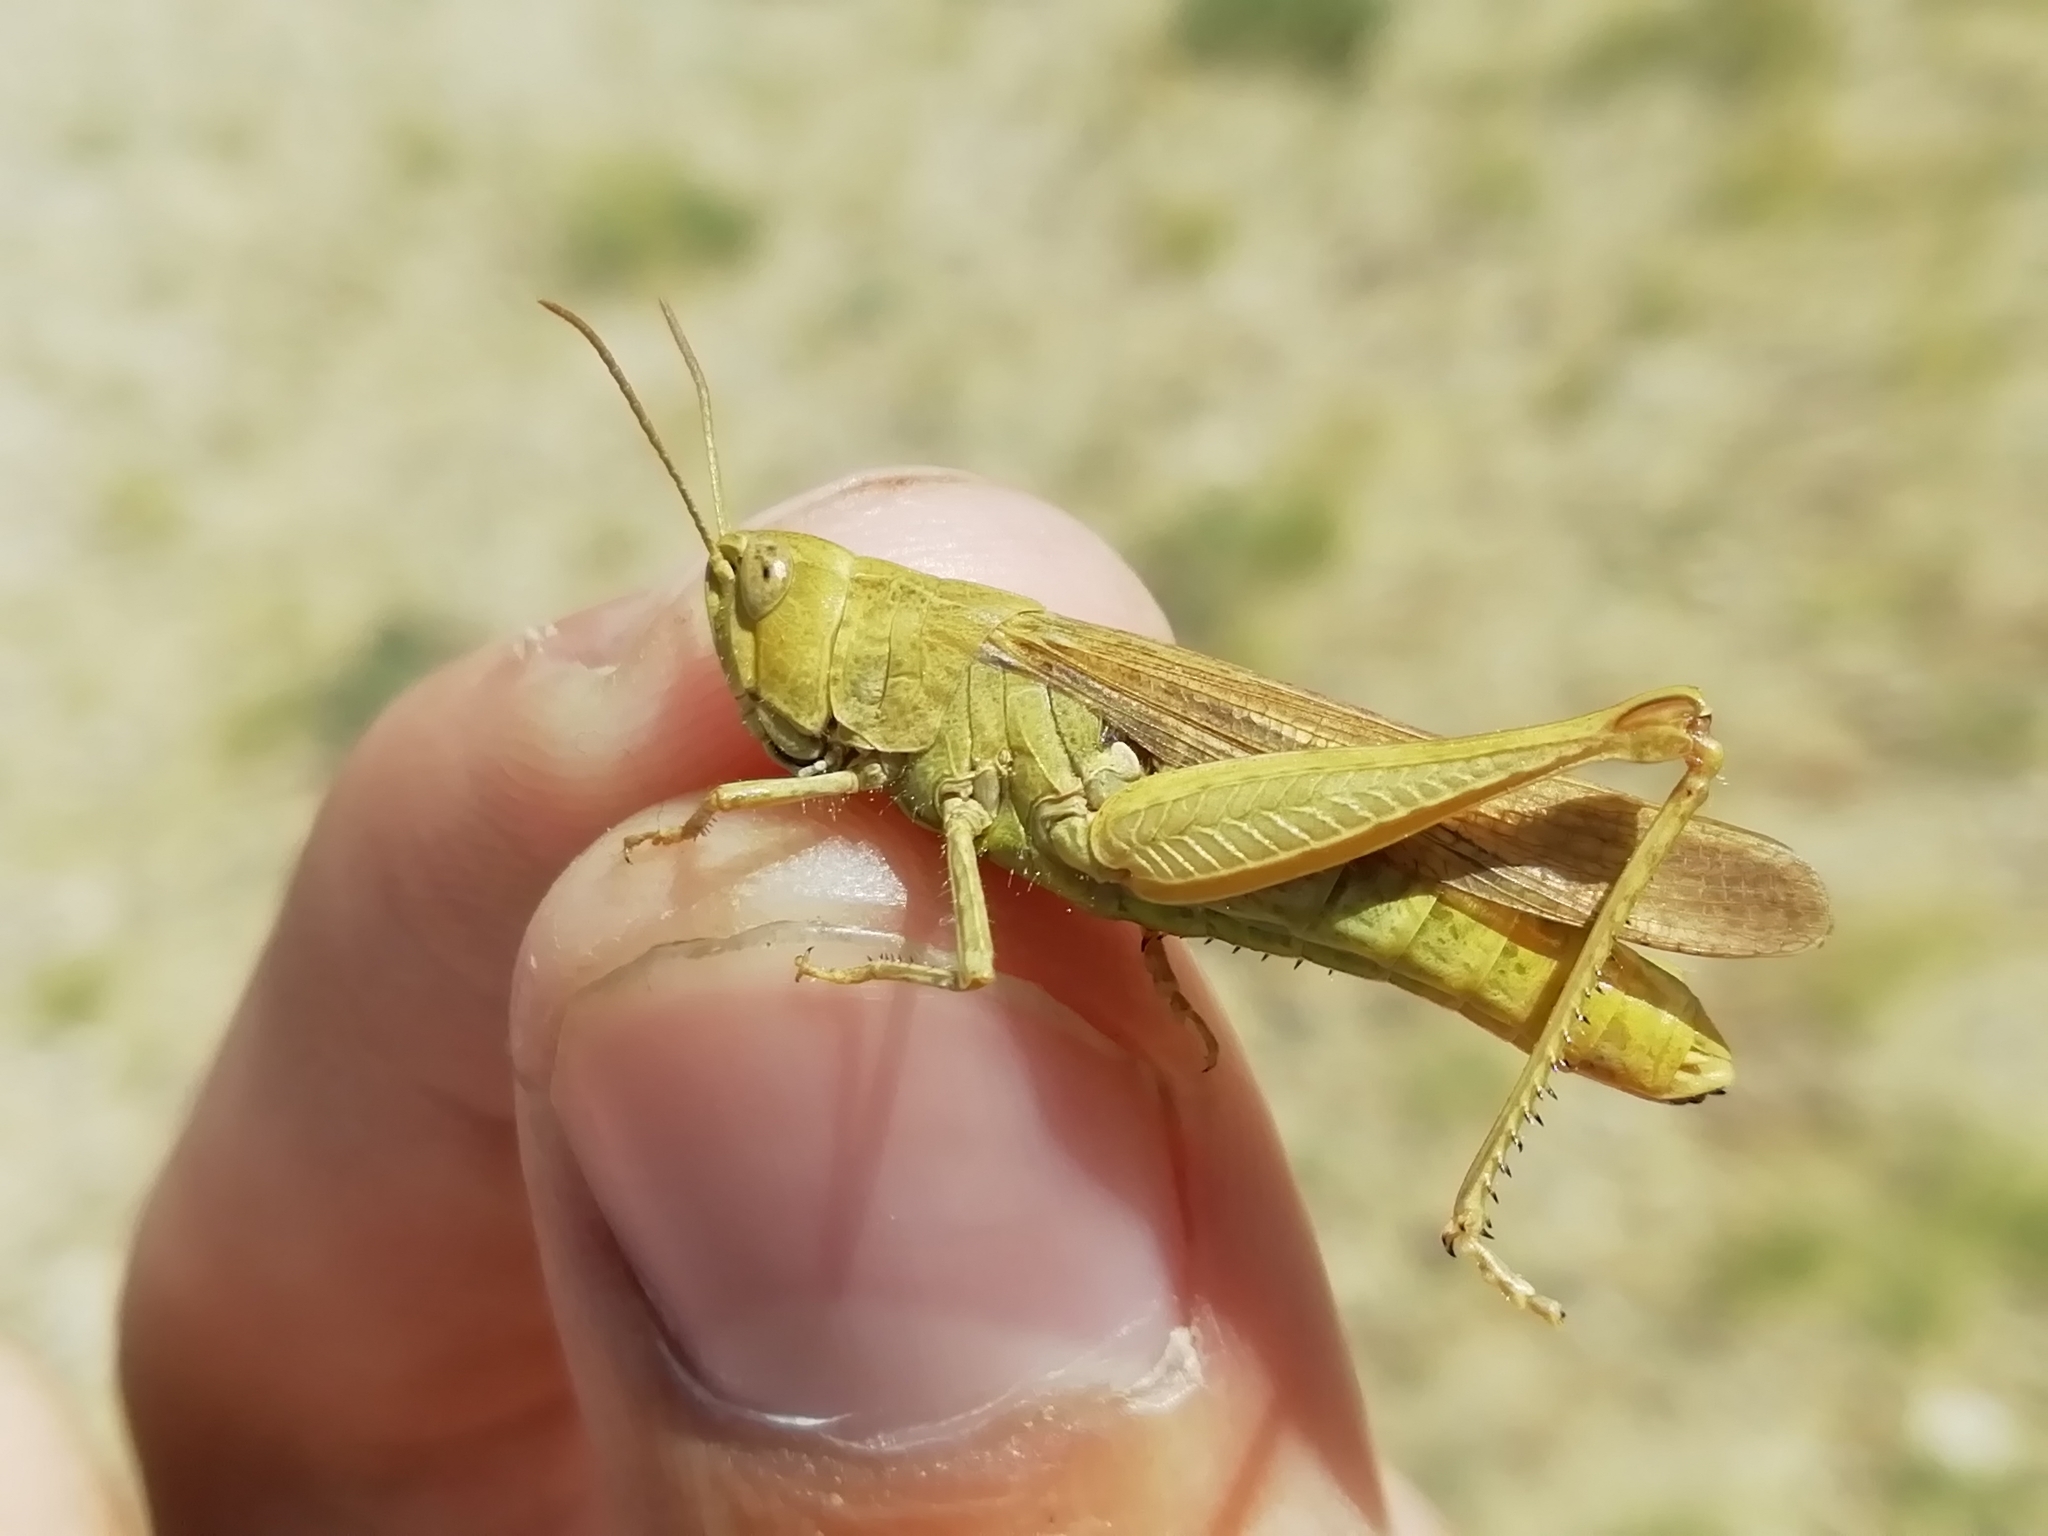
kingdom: Animalia
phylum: Arthropoda
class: Insecta
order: Orthoptera
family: Acrididae
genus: Chorthippus
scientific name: Chorthippus miramae
